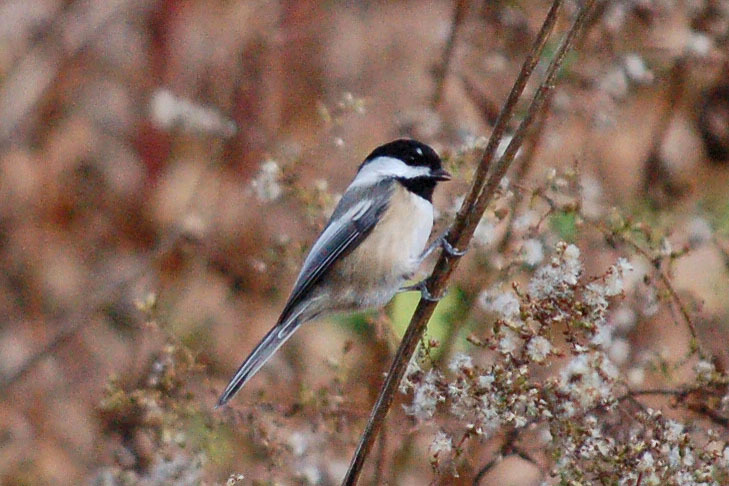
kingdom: Animalia
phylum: Chordata
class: Aves
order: Passeriformes
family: Paridae
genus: Poecile
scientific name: Poecile atricapillus
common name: Black-capped chickadee
